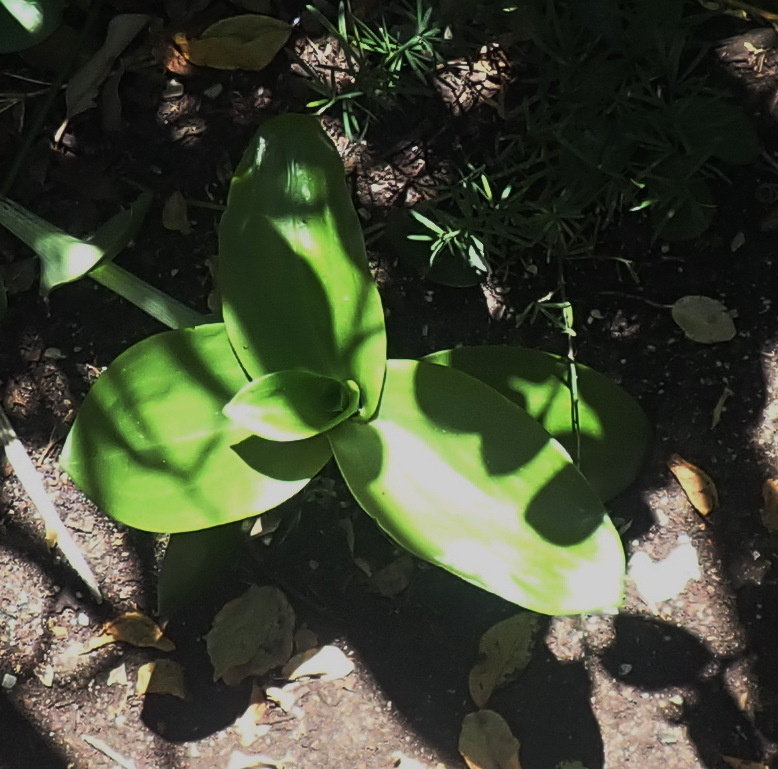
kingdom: Plantae
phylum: Tracheophyta
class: Liliopsida
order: Asparagales
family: Orchidaceae
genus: Bonatea
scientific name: Bonatea speciosa
